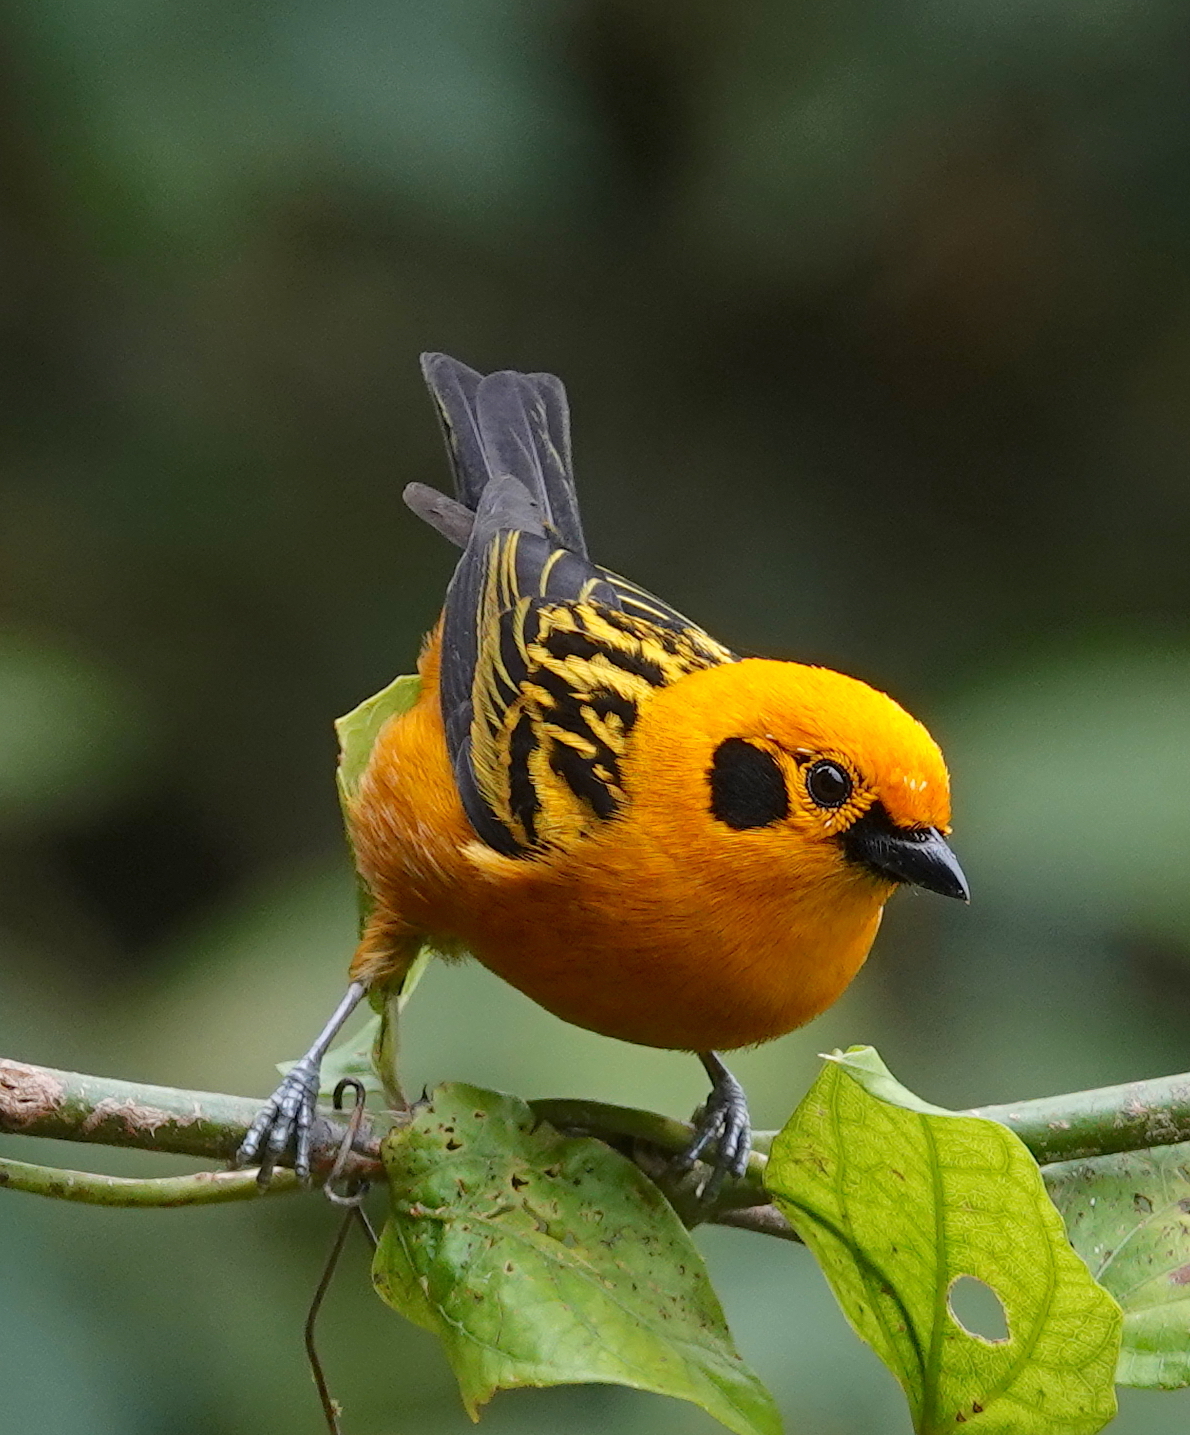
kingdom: Animalia
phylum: Chordata
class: Aves
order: Passeriformes
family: Thraupidae
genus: Tangara
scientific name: Tangara arthus
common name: Golden tanager
